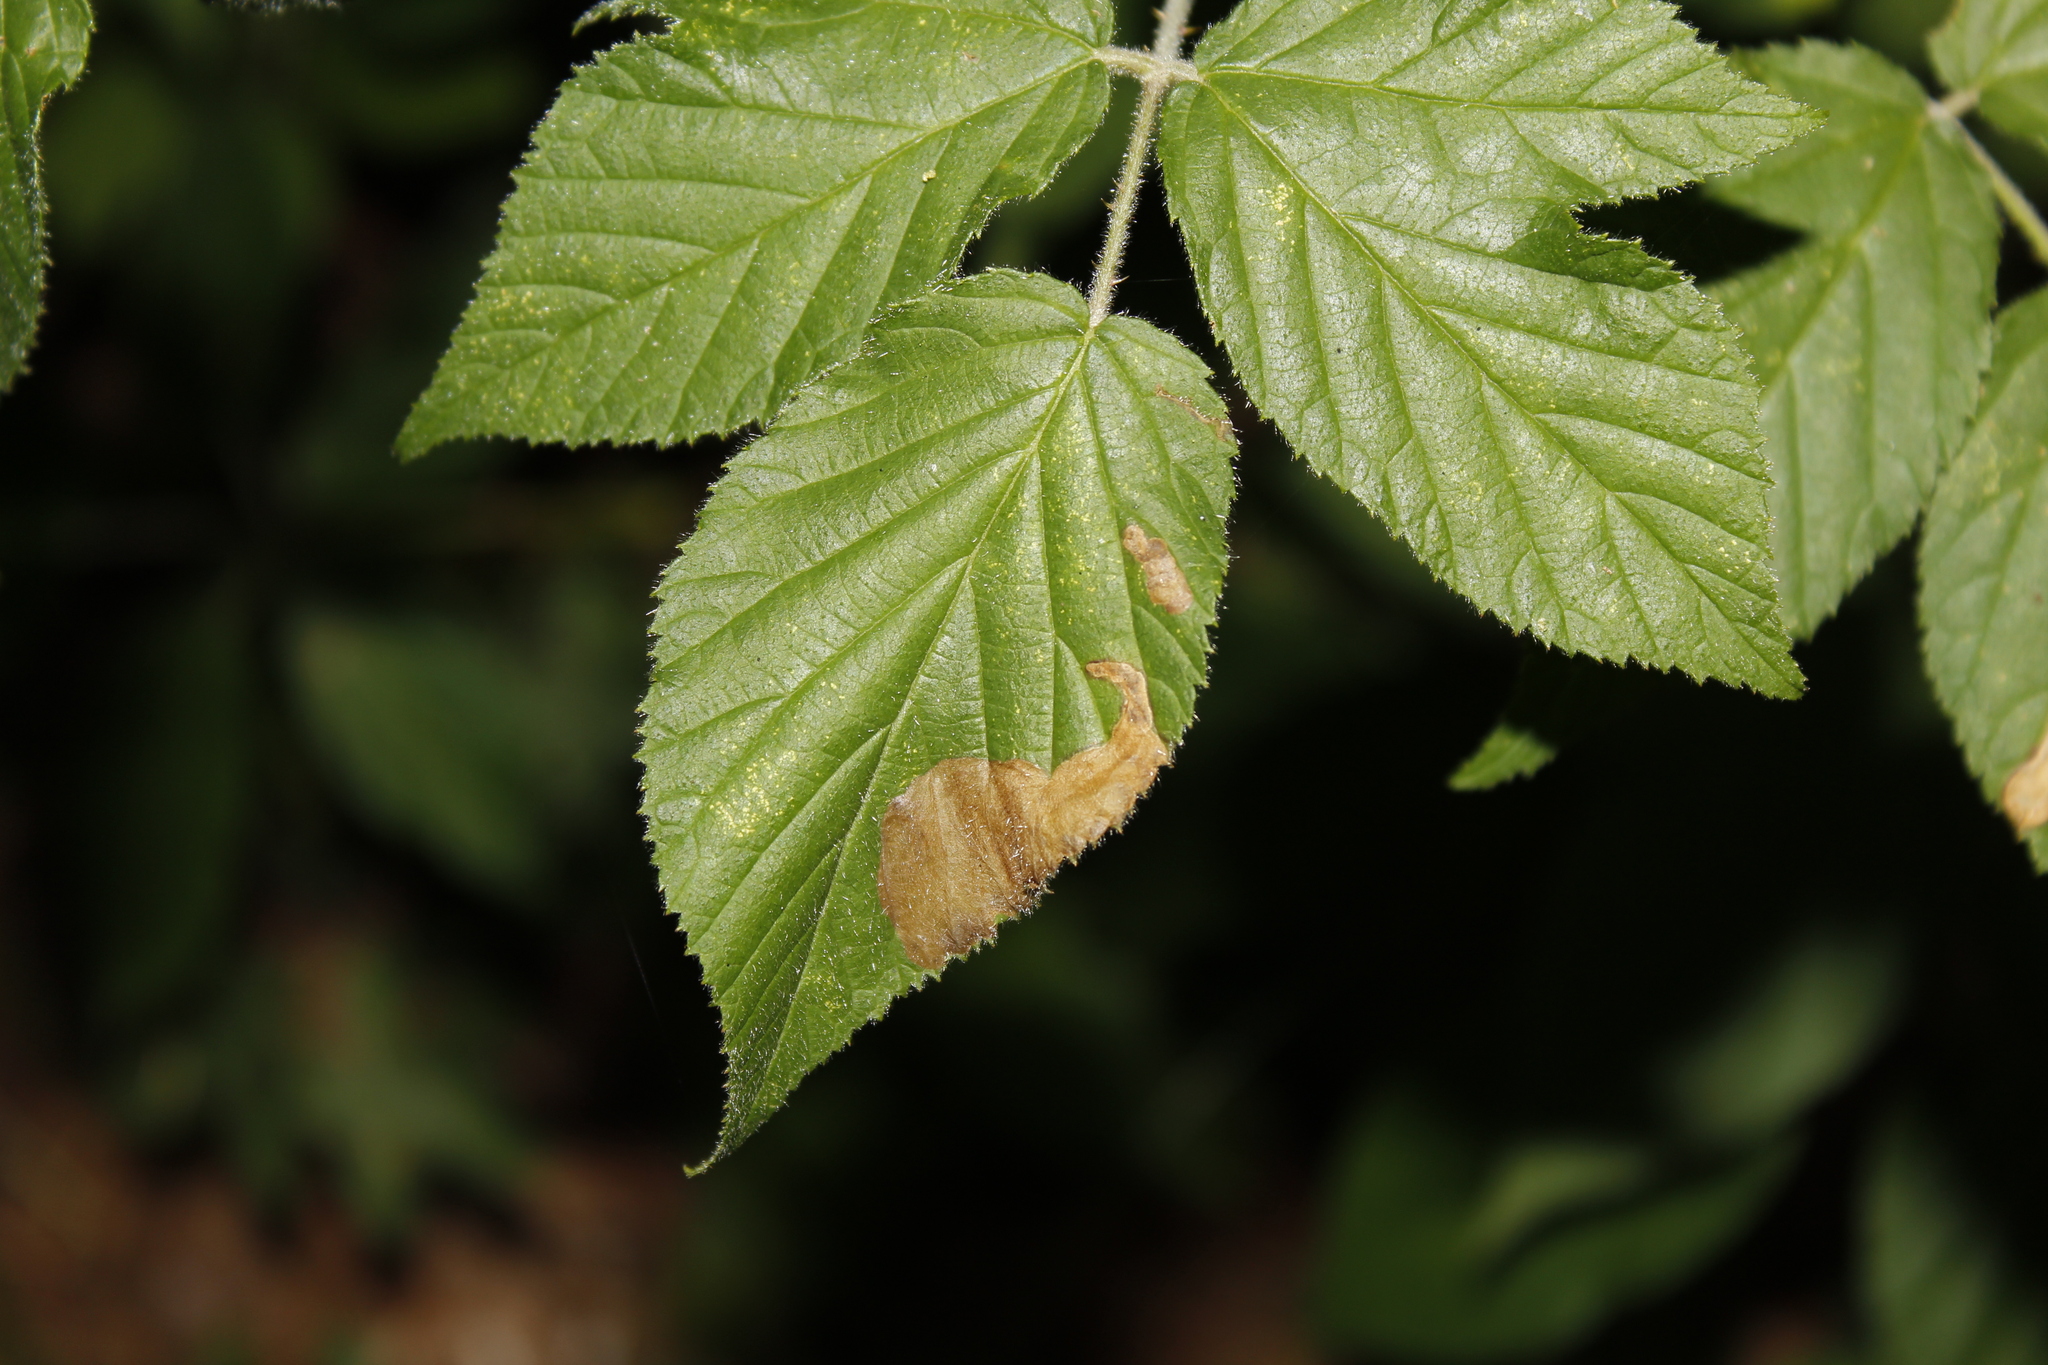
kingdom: Animalia
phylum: Arthropoda
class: Insecta
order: Hymenoptera
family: Tenthredinidae
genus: Metallus
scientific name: Metallus rohweri
